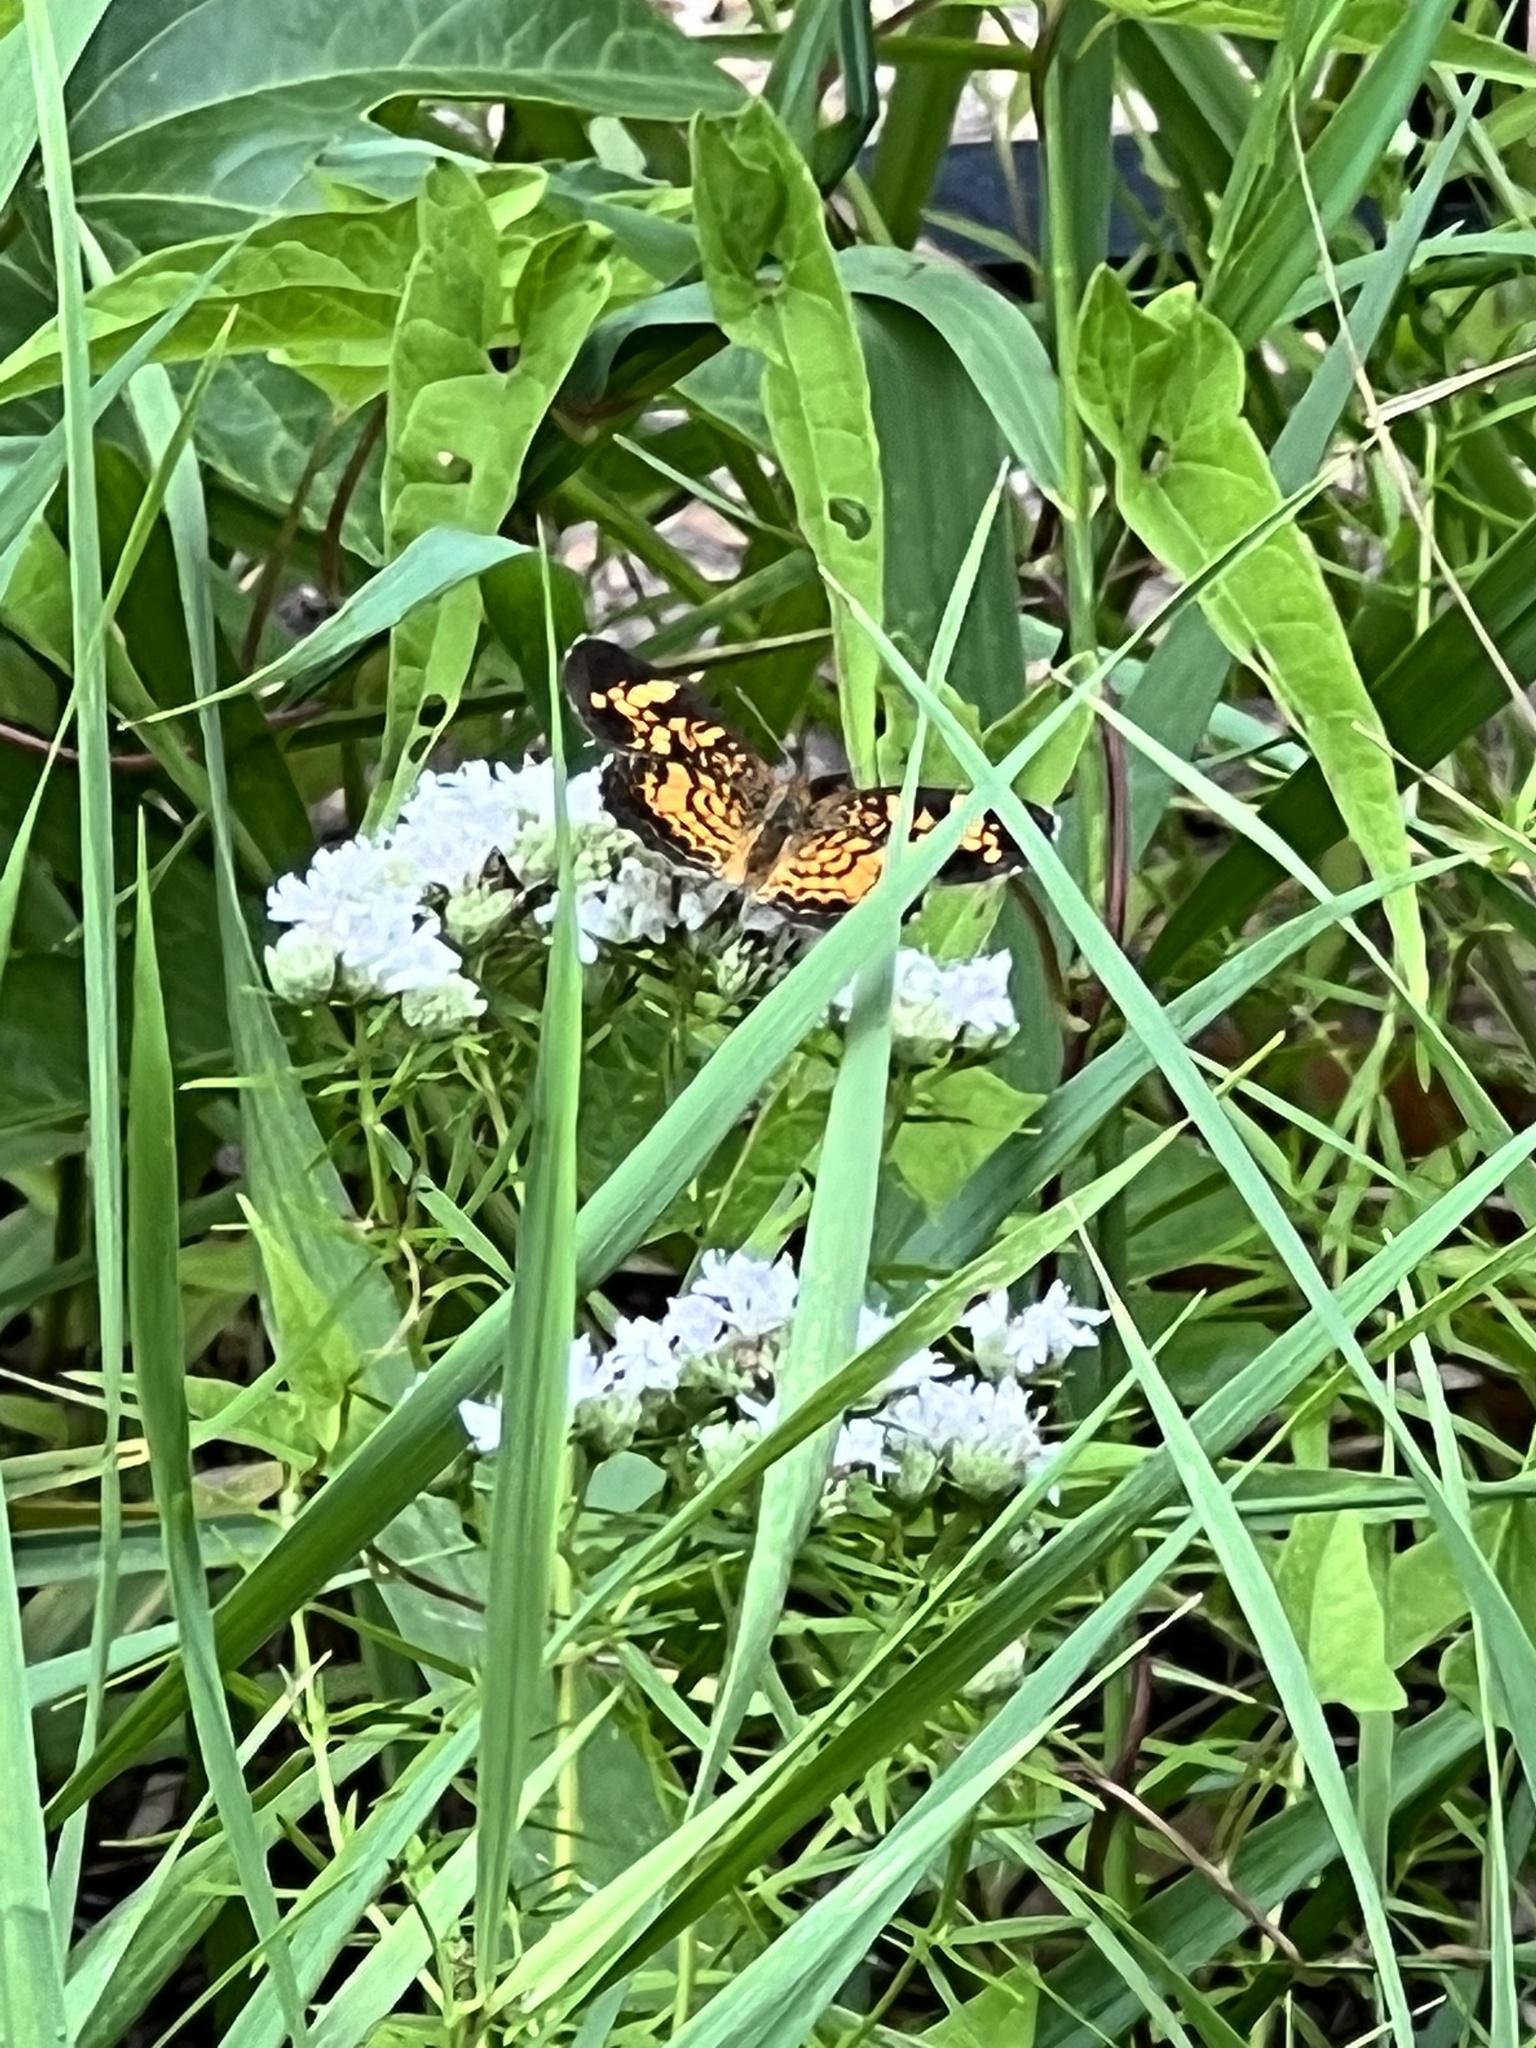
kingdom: Animalia
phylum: Arthropoda
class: Insecta
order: Lepidoptera
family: Nymphalidae
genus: Phyciodes
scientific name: Phyciodes tharos
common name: Pearl crescent
